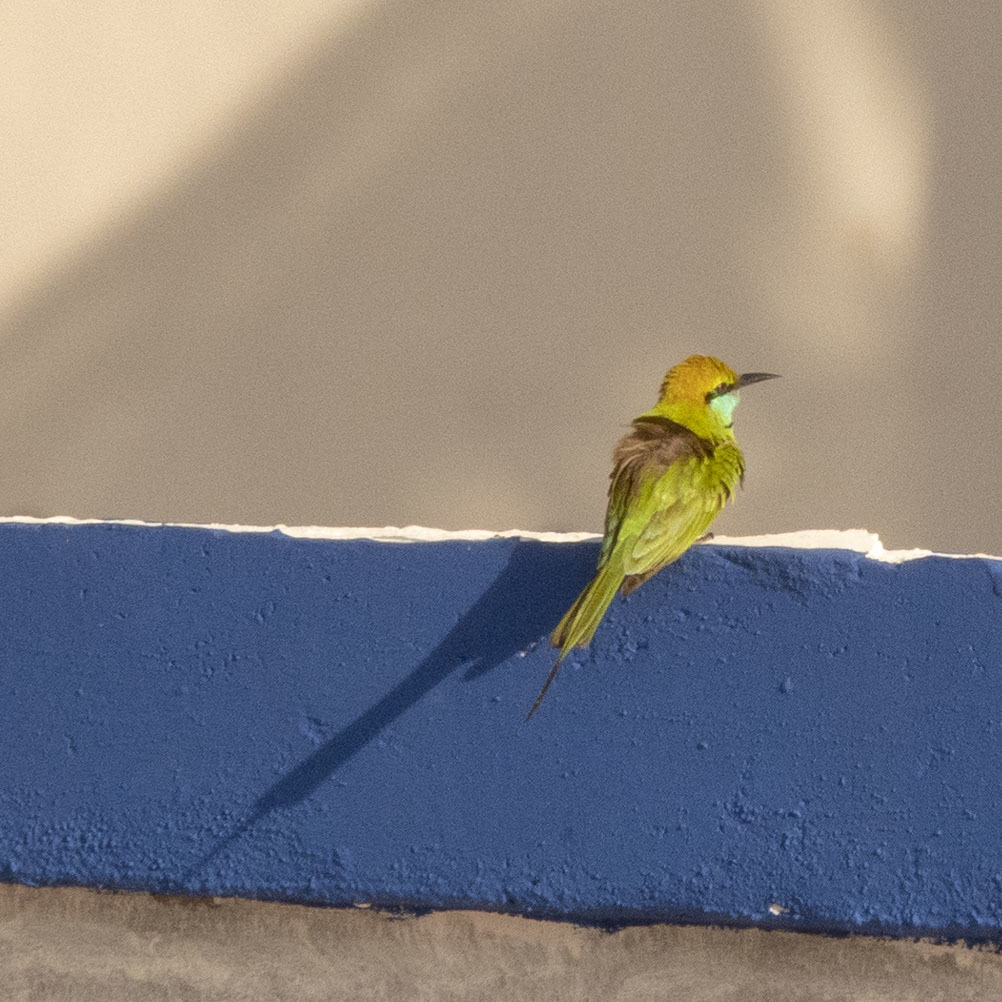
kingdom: Animalia
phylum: Chordata
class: Aves
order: Coraciiformes
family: Meropidae
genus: Merops
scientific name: Merops orientalis
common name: Green bee-eater
